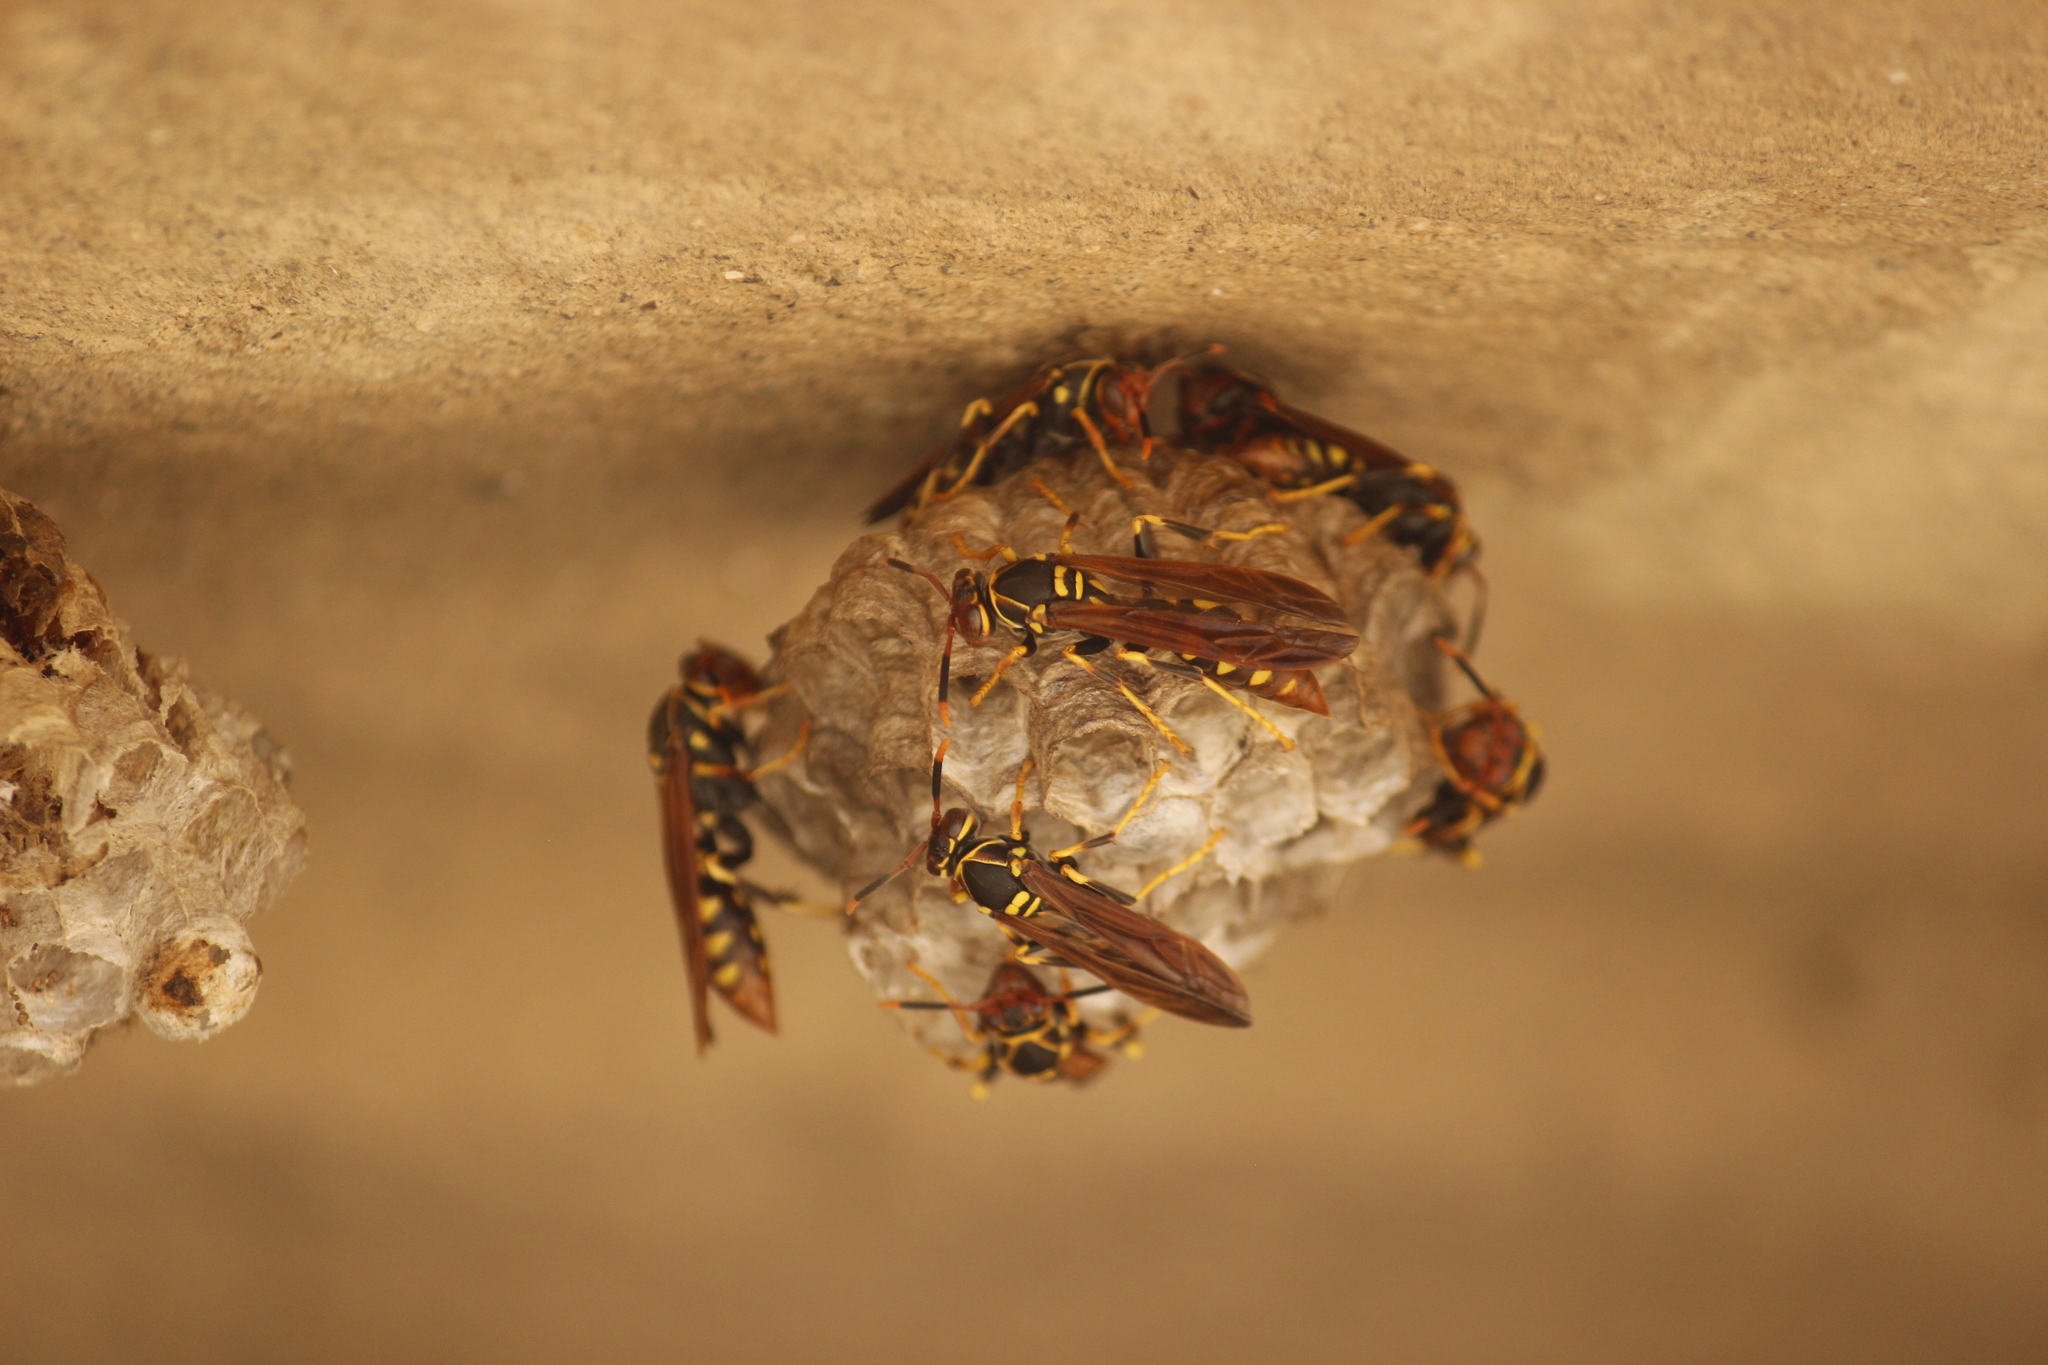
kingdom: Animalia
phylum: Arthropoda
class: Insecta
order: Hymenoptera
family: Eumenidae
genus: Polistes
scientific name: Polistes weyrauchorum
